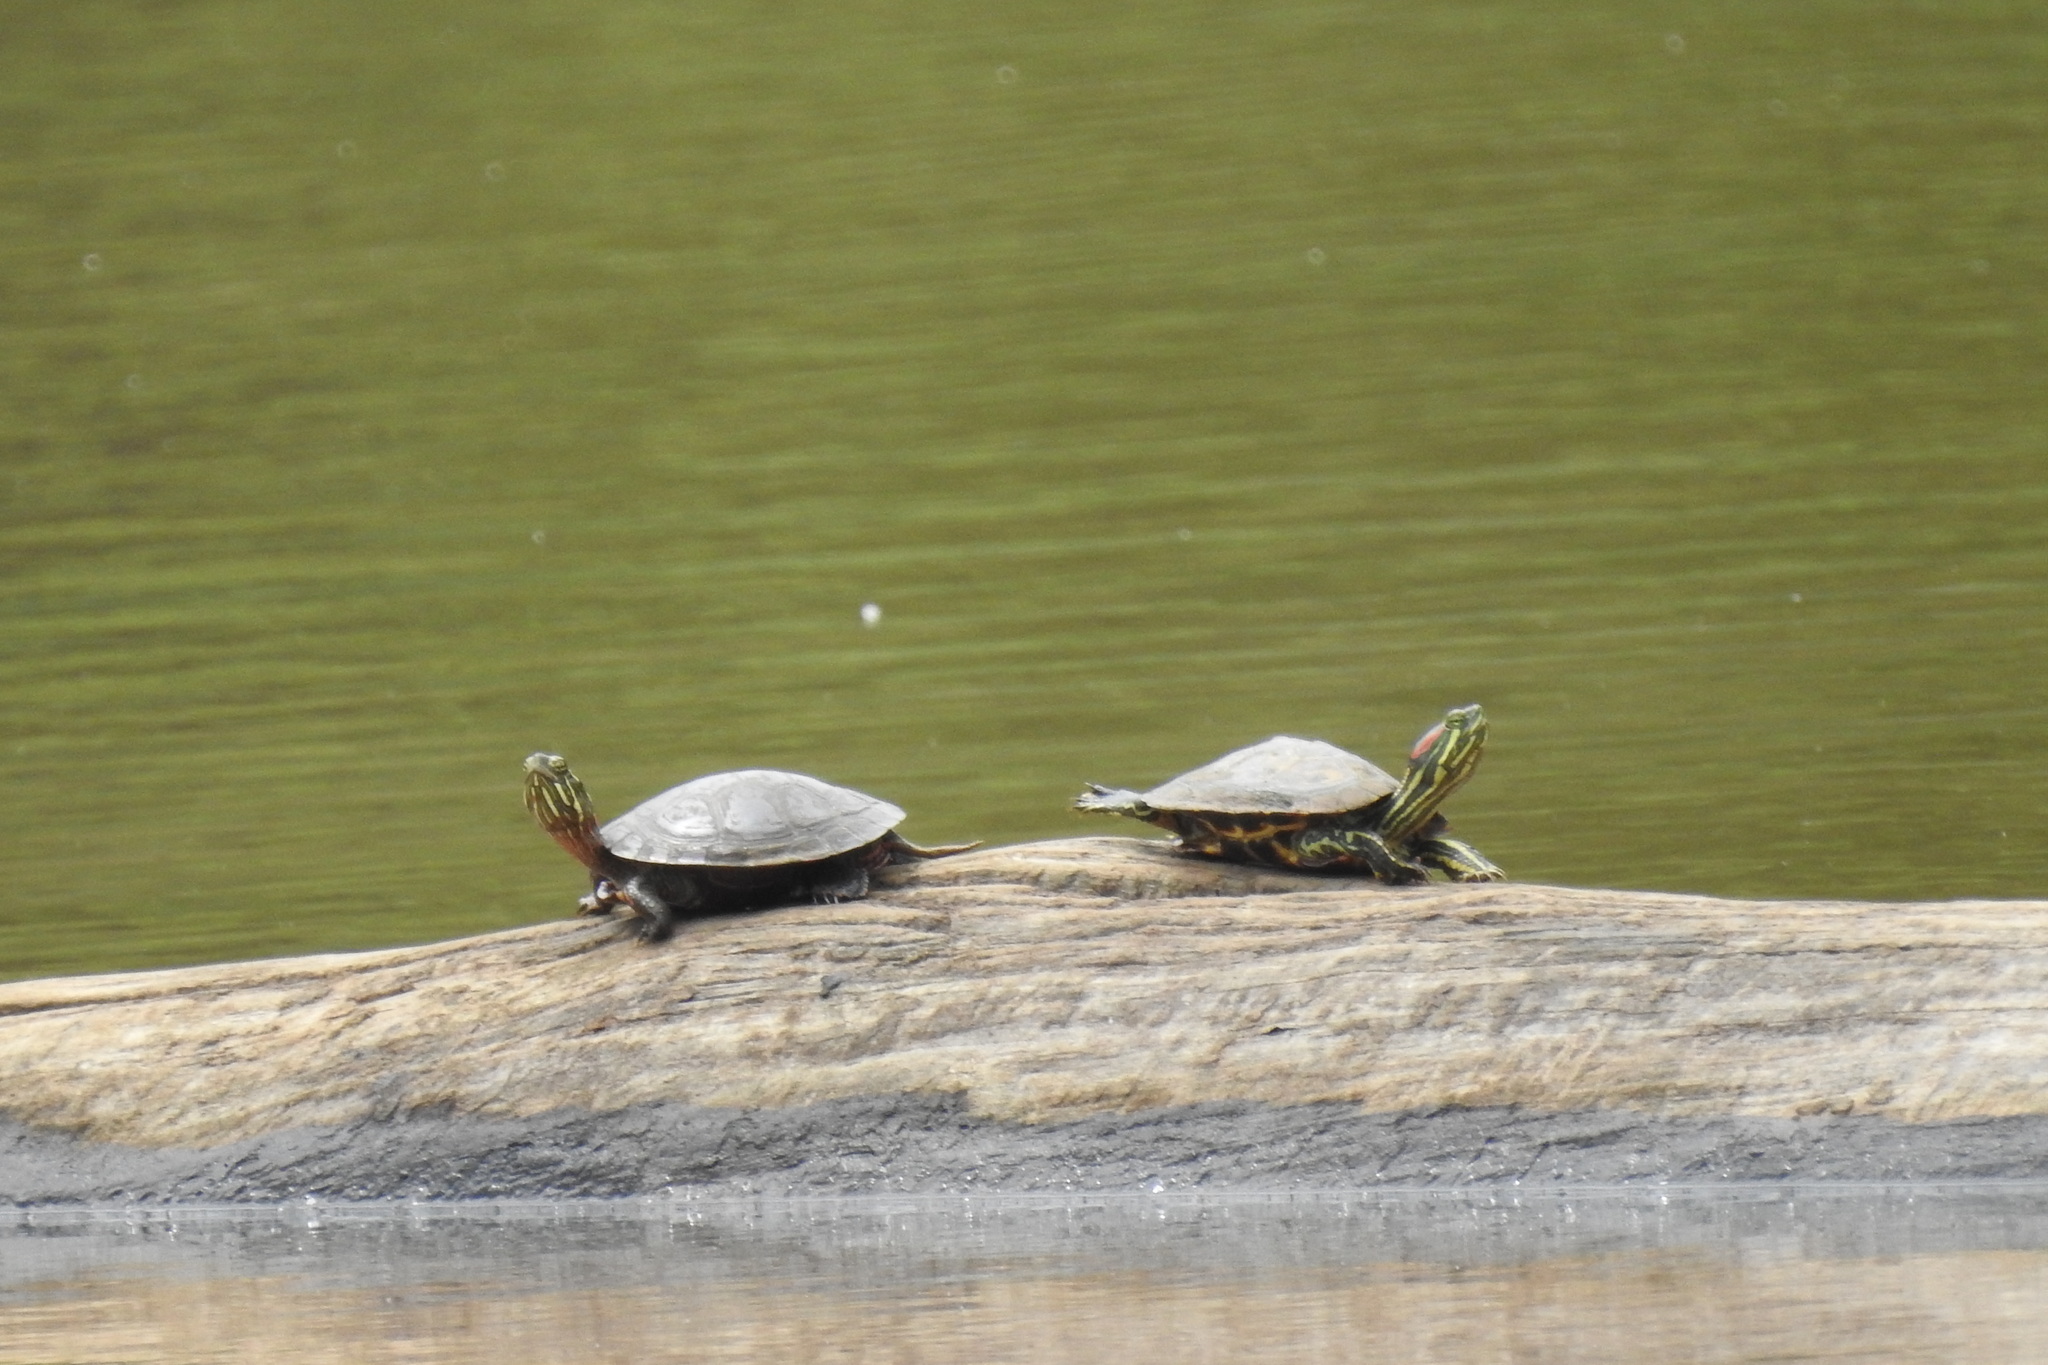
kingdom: Animalia
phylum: Chordata
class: Testudines
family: Emydidae
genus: Chrysemys
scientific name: Chrysemys picta
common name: Painted turtle
